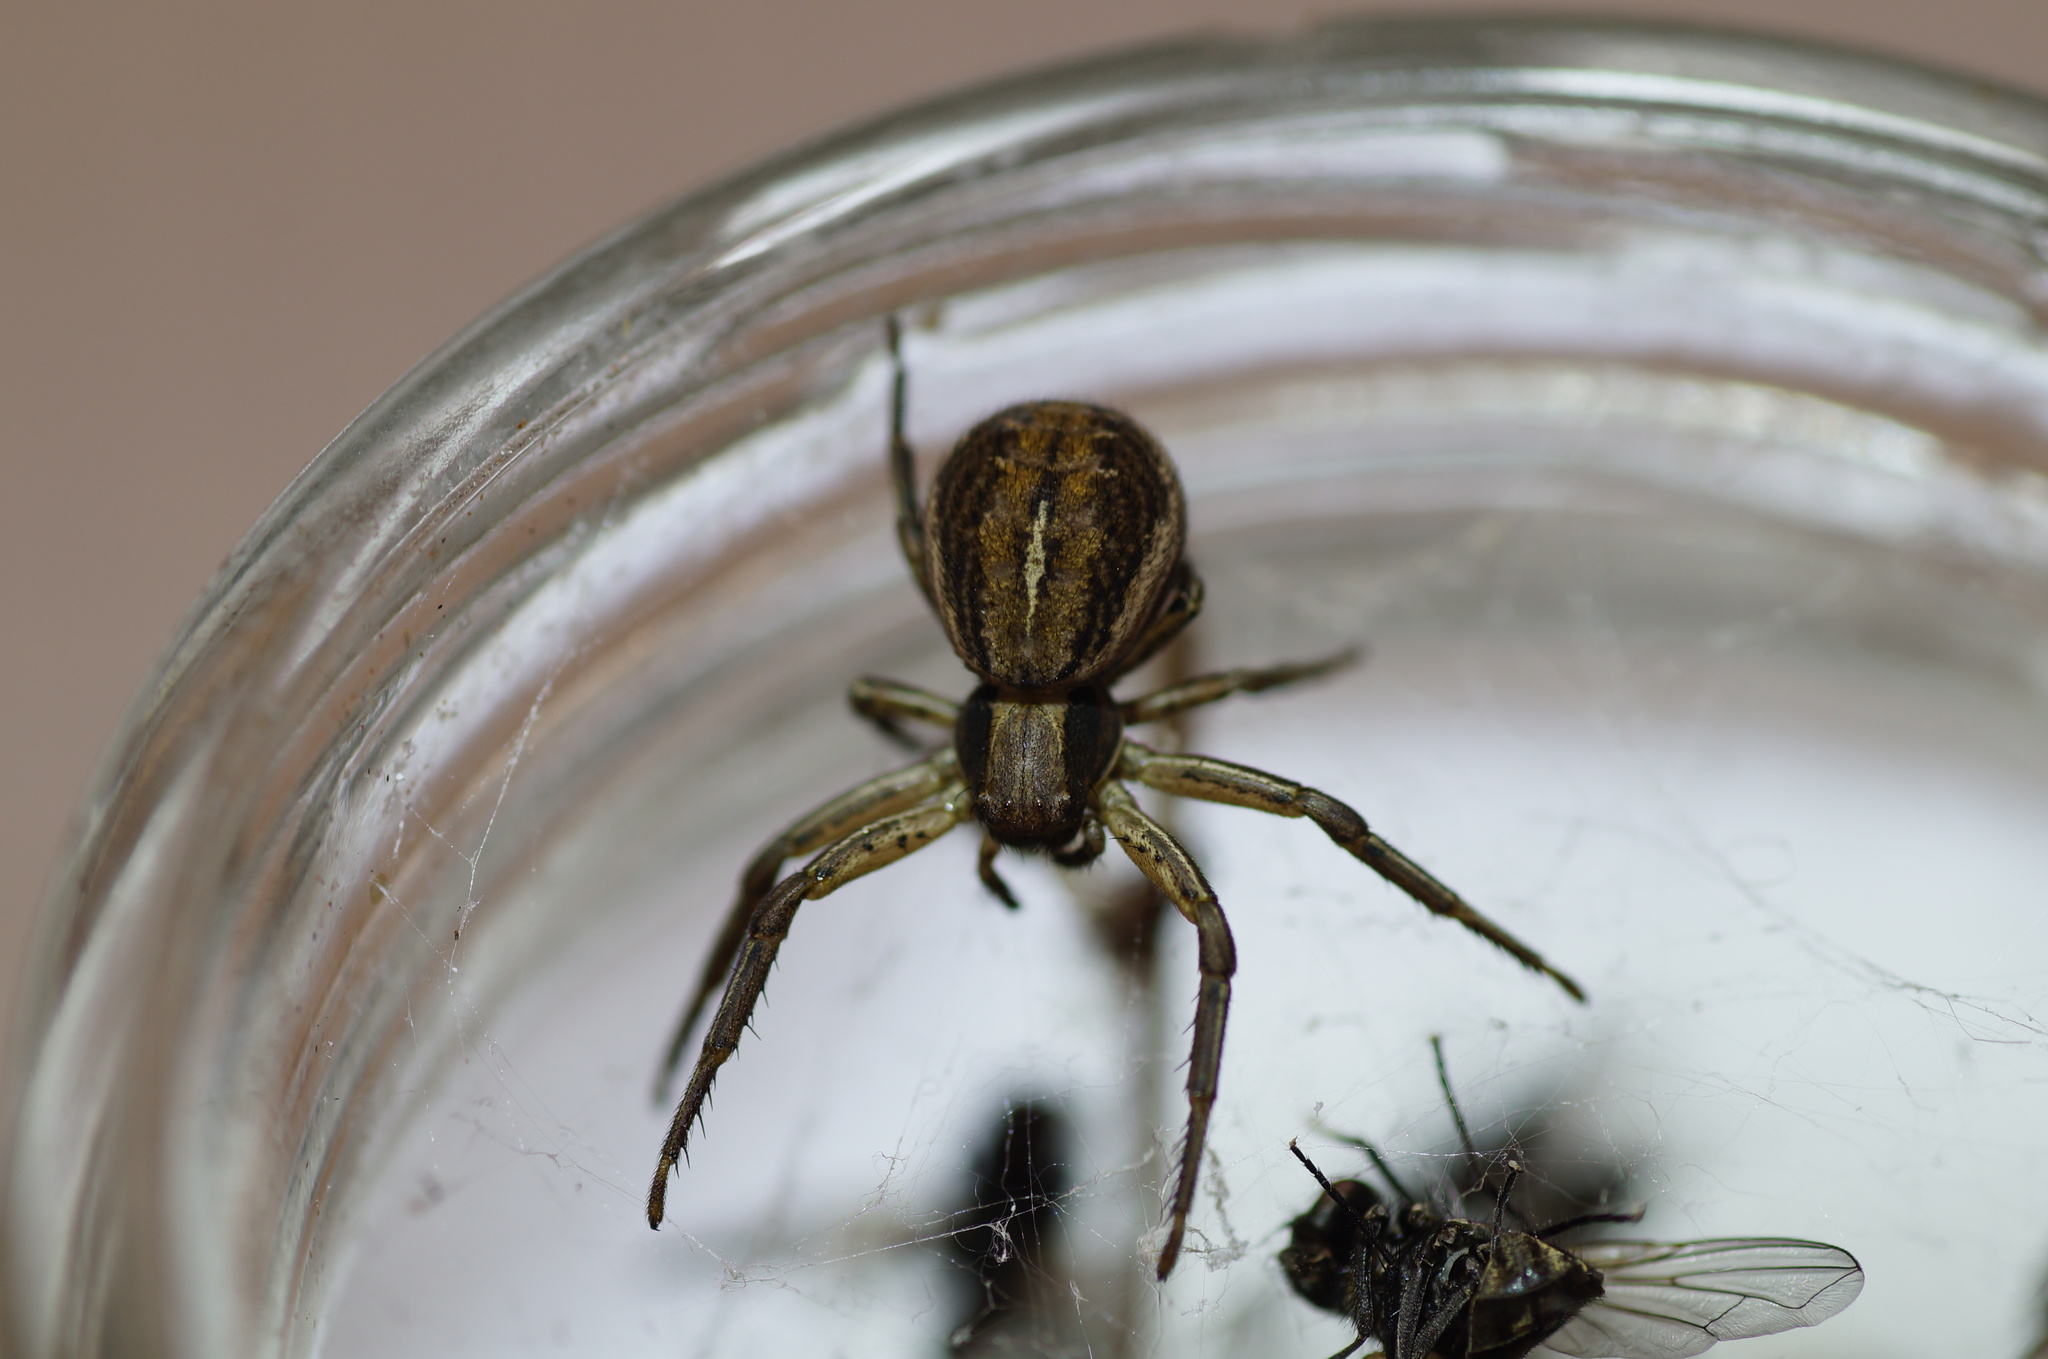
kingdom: Animalia
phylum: Arthropoda
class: Arachnida
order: Araneae
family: Thomisidae
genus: Spiracme
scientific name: Spiracme striatipes
